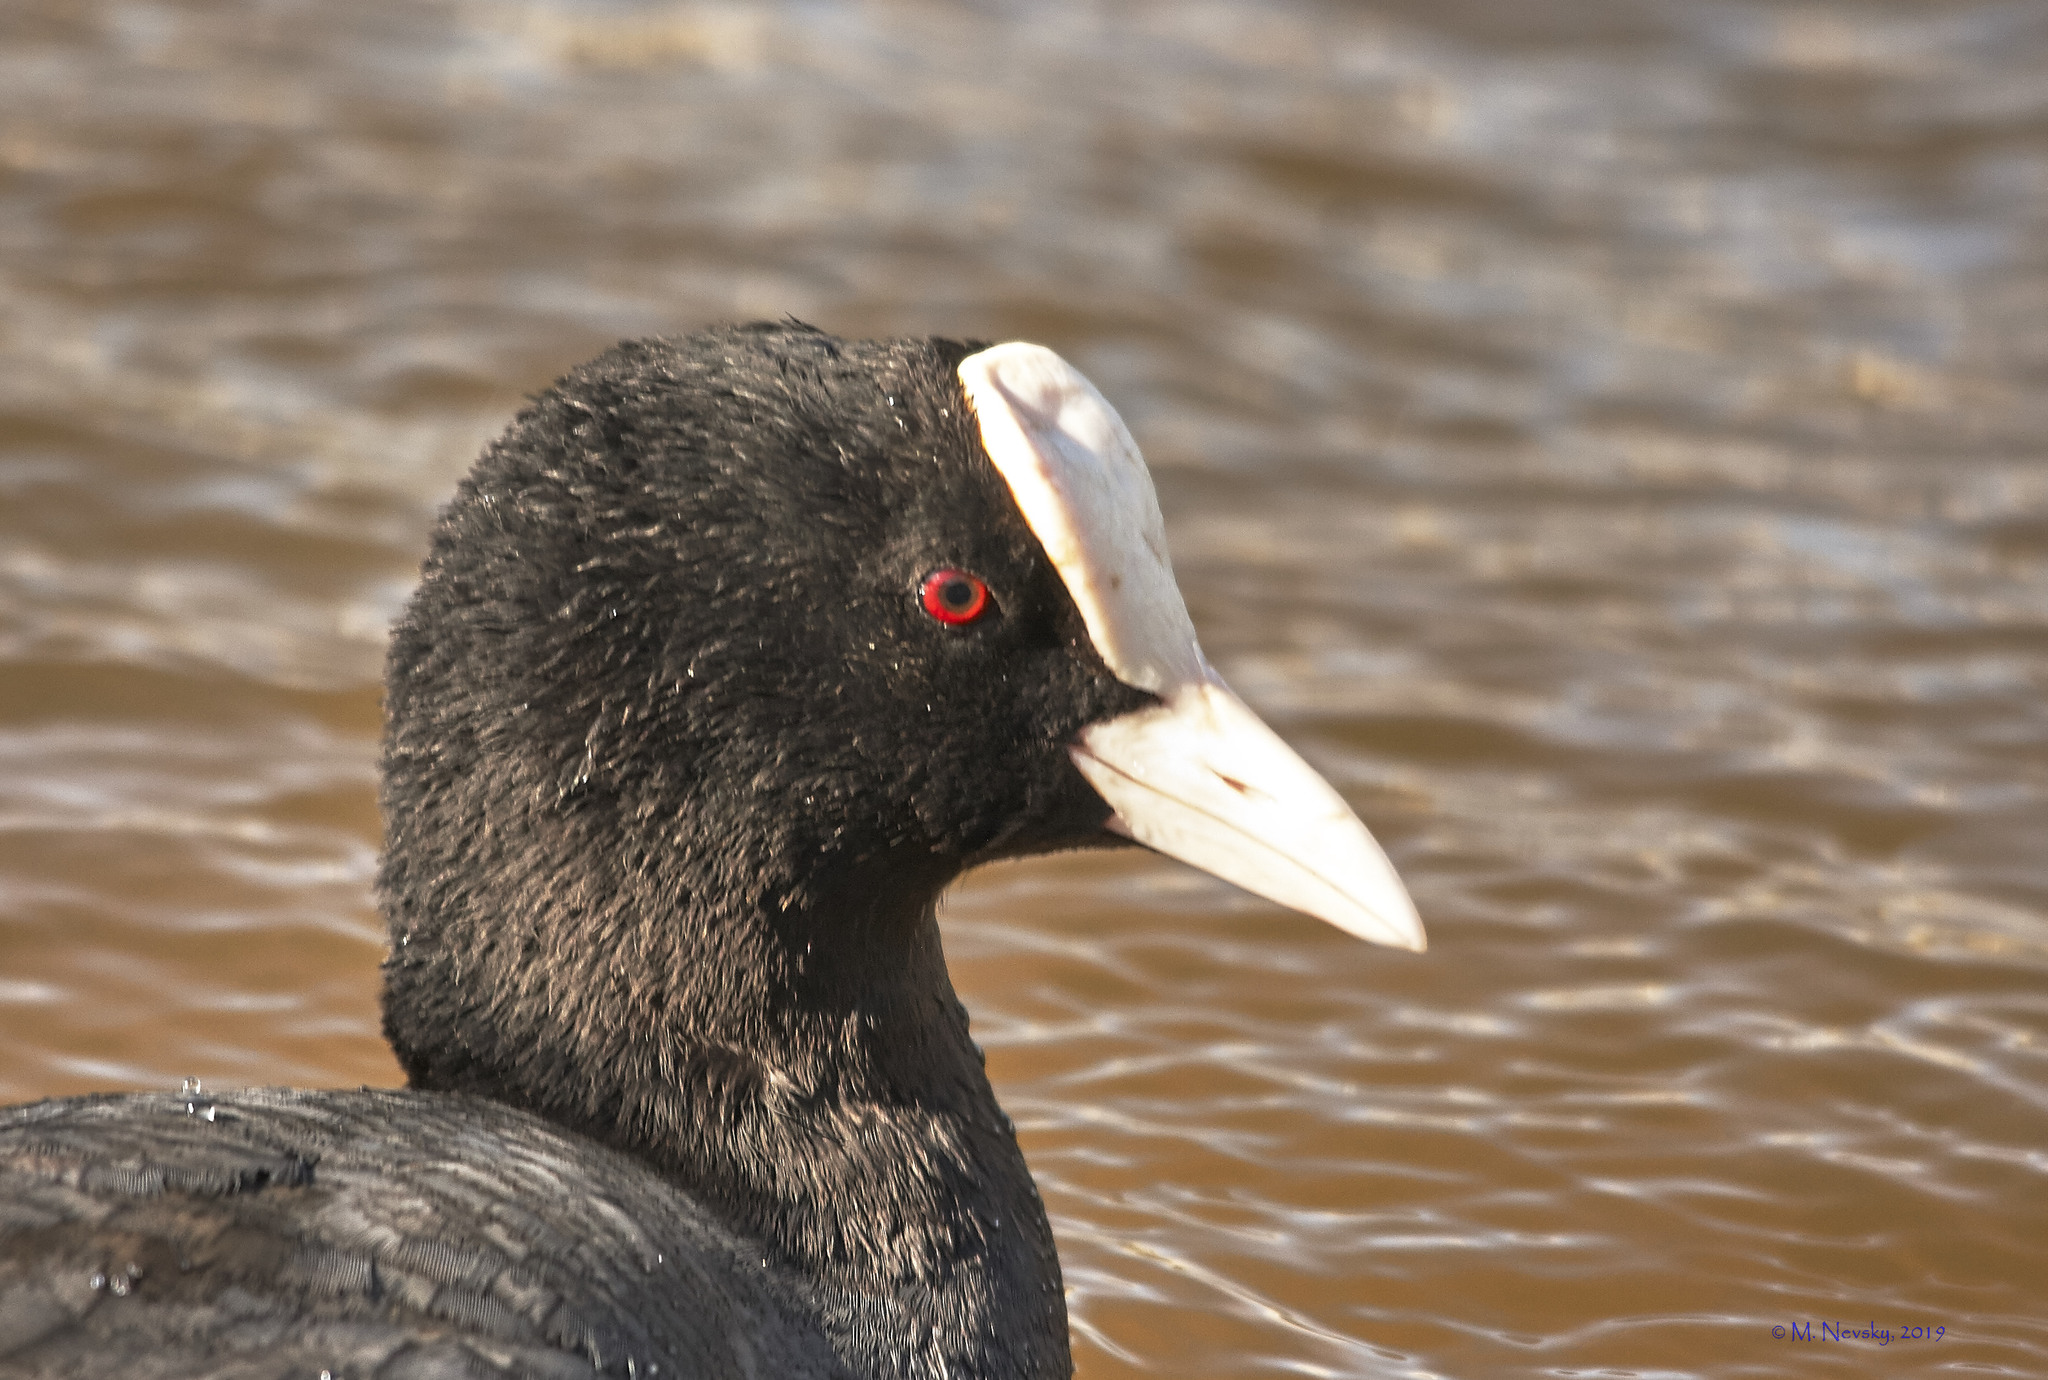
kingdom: Animalia
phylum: Chordata
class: Aves
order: Gruiformes
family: Rallidae
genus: Fulica
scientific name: Fulica atra
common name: Eurasian coot
